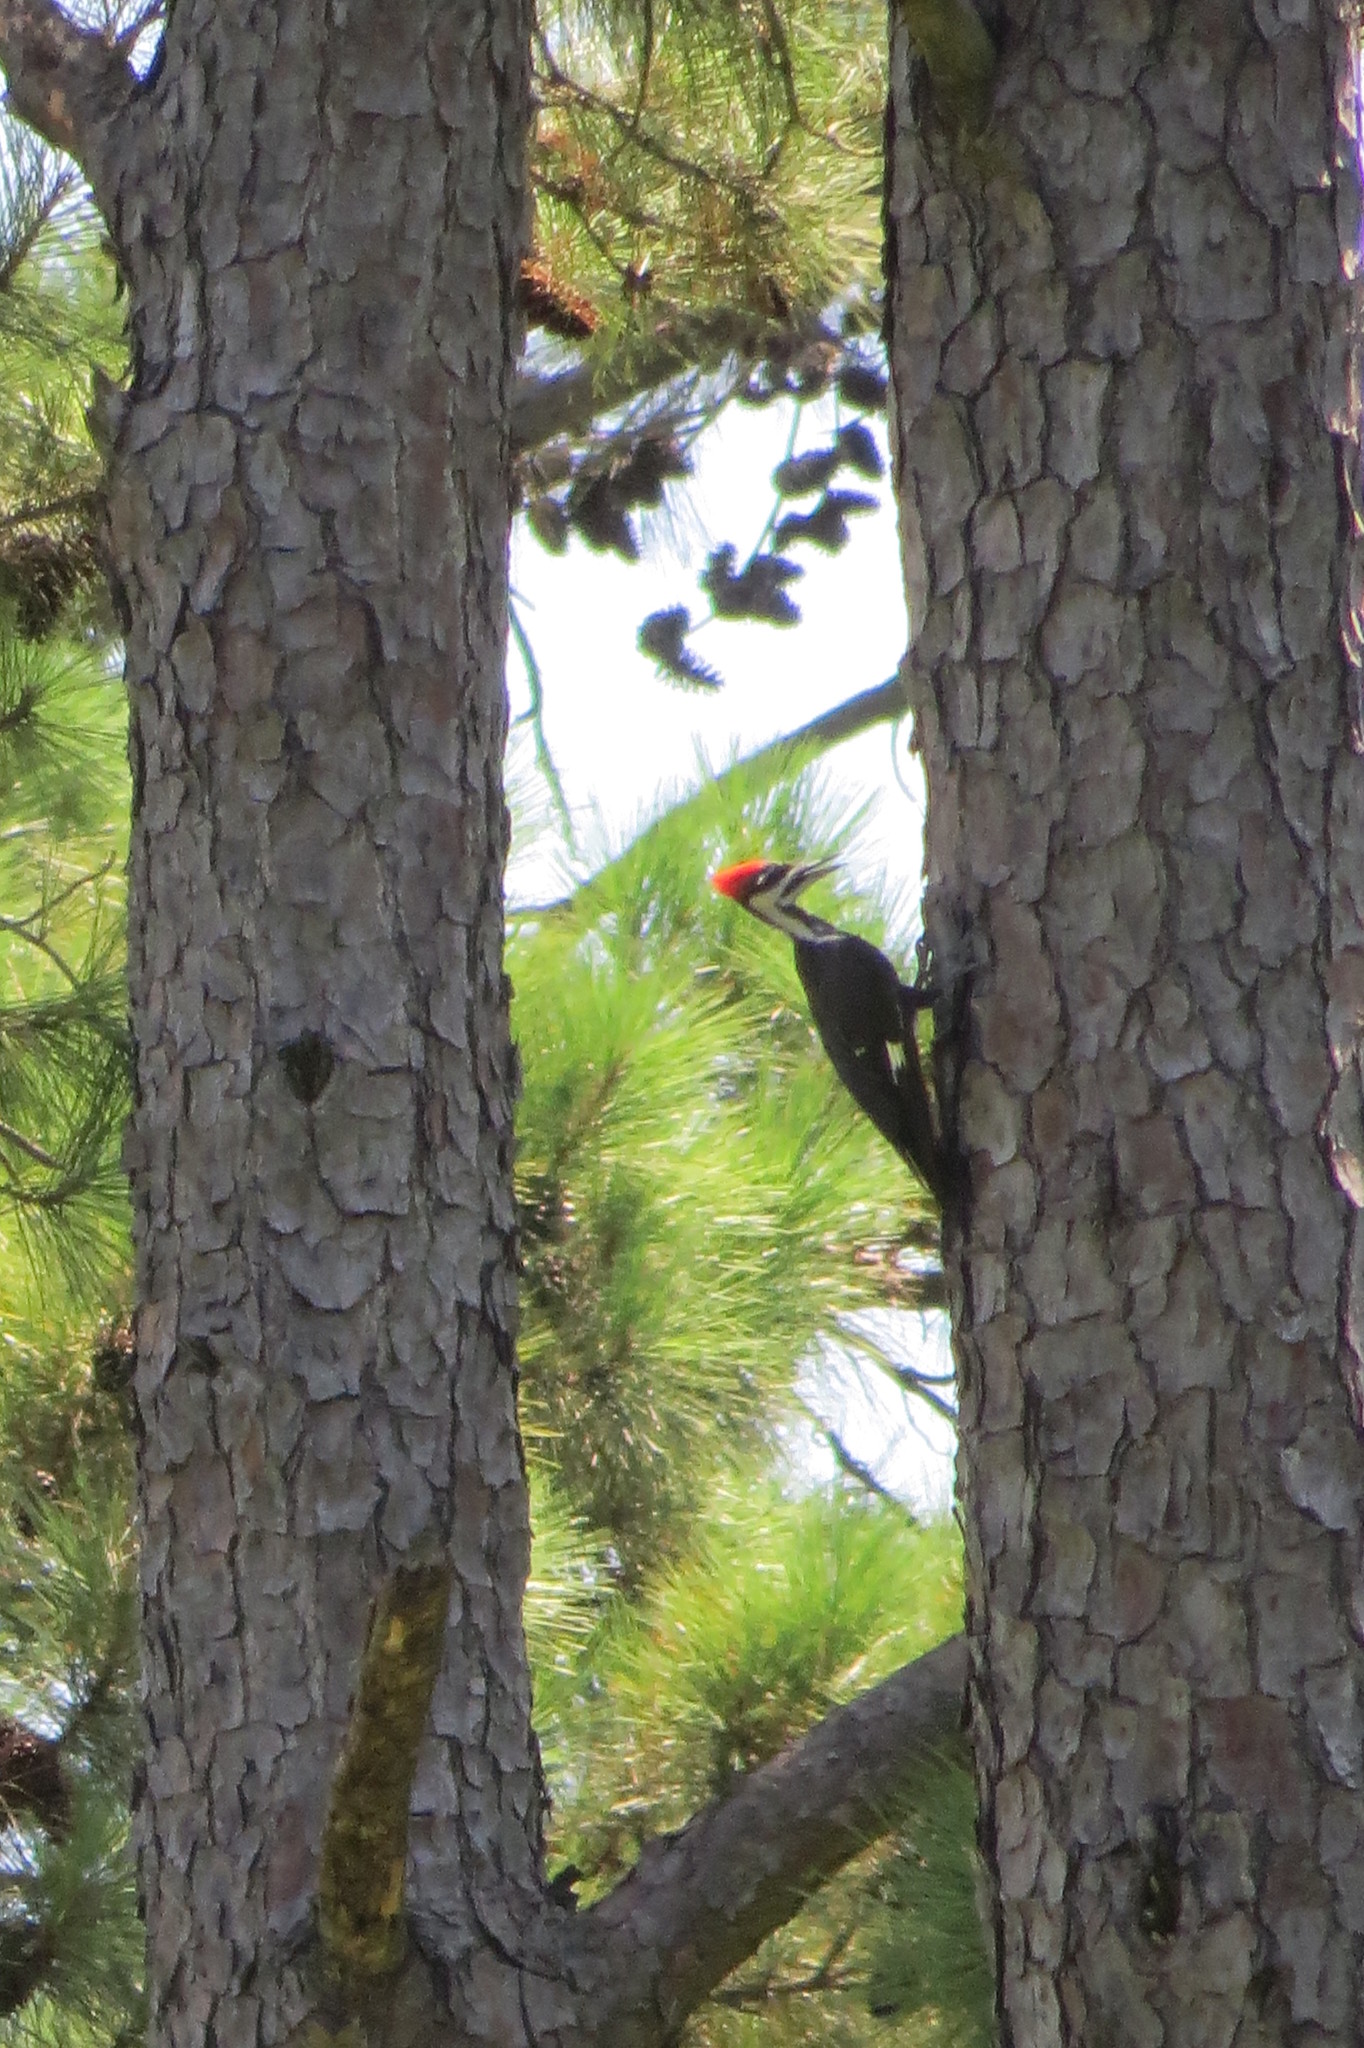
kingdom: Animalia
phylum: Chordata
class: Aves
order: Piciformes
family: Picidae
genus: Dryocopus
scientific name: Dryocopus pileatus
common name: Pileated woodpecker
